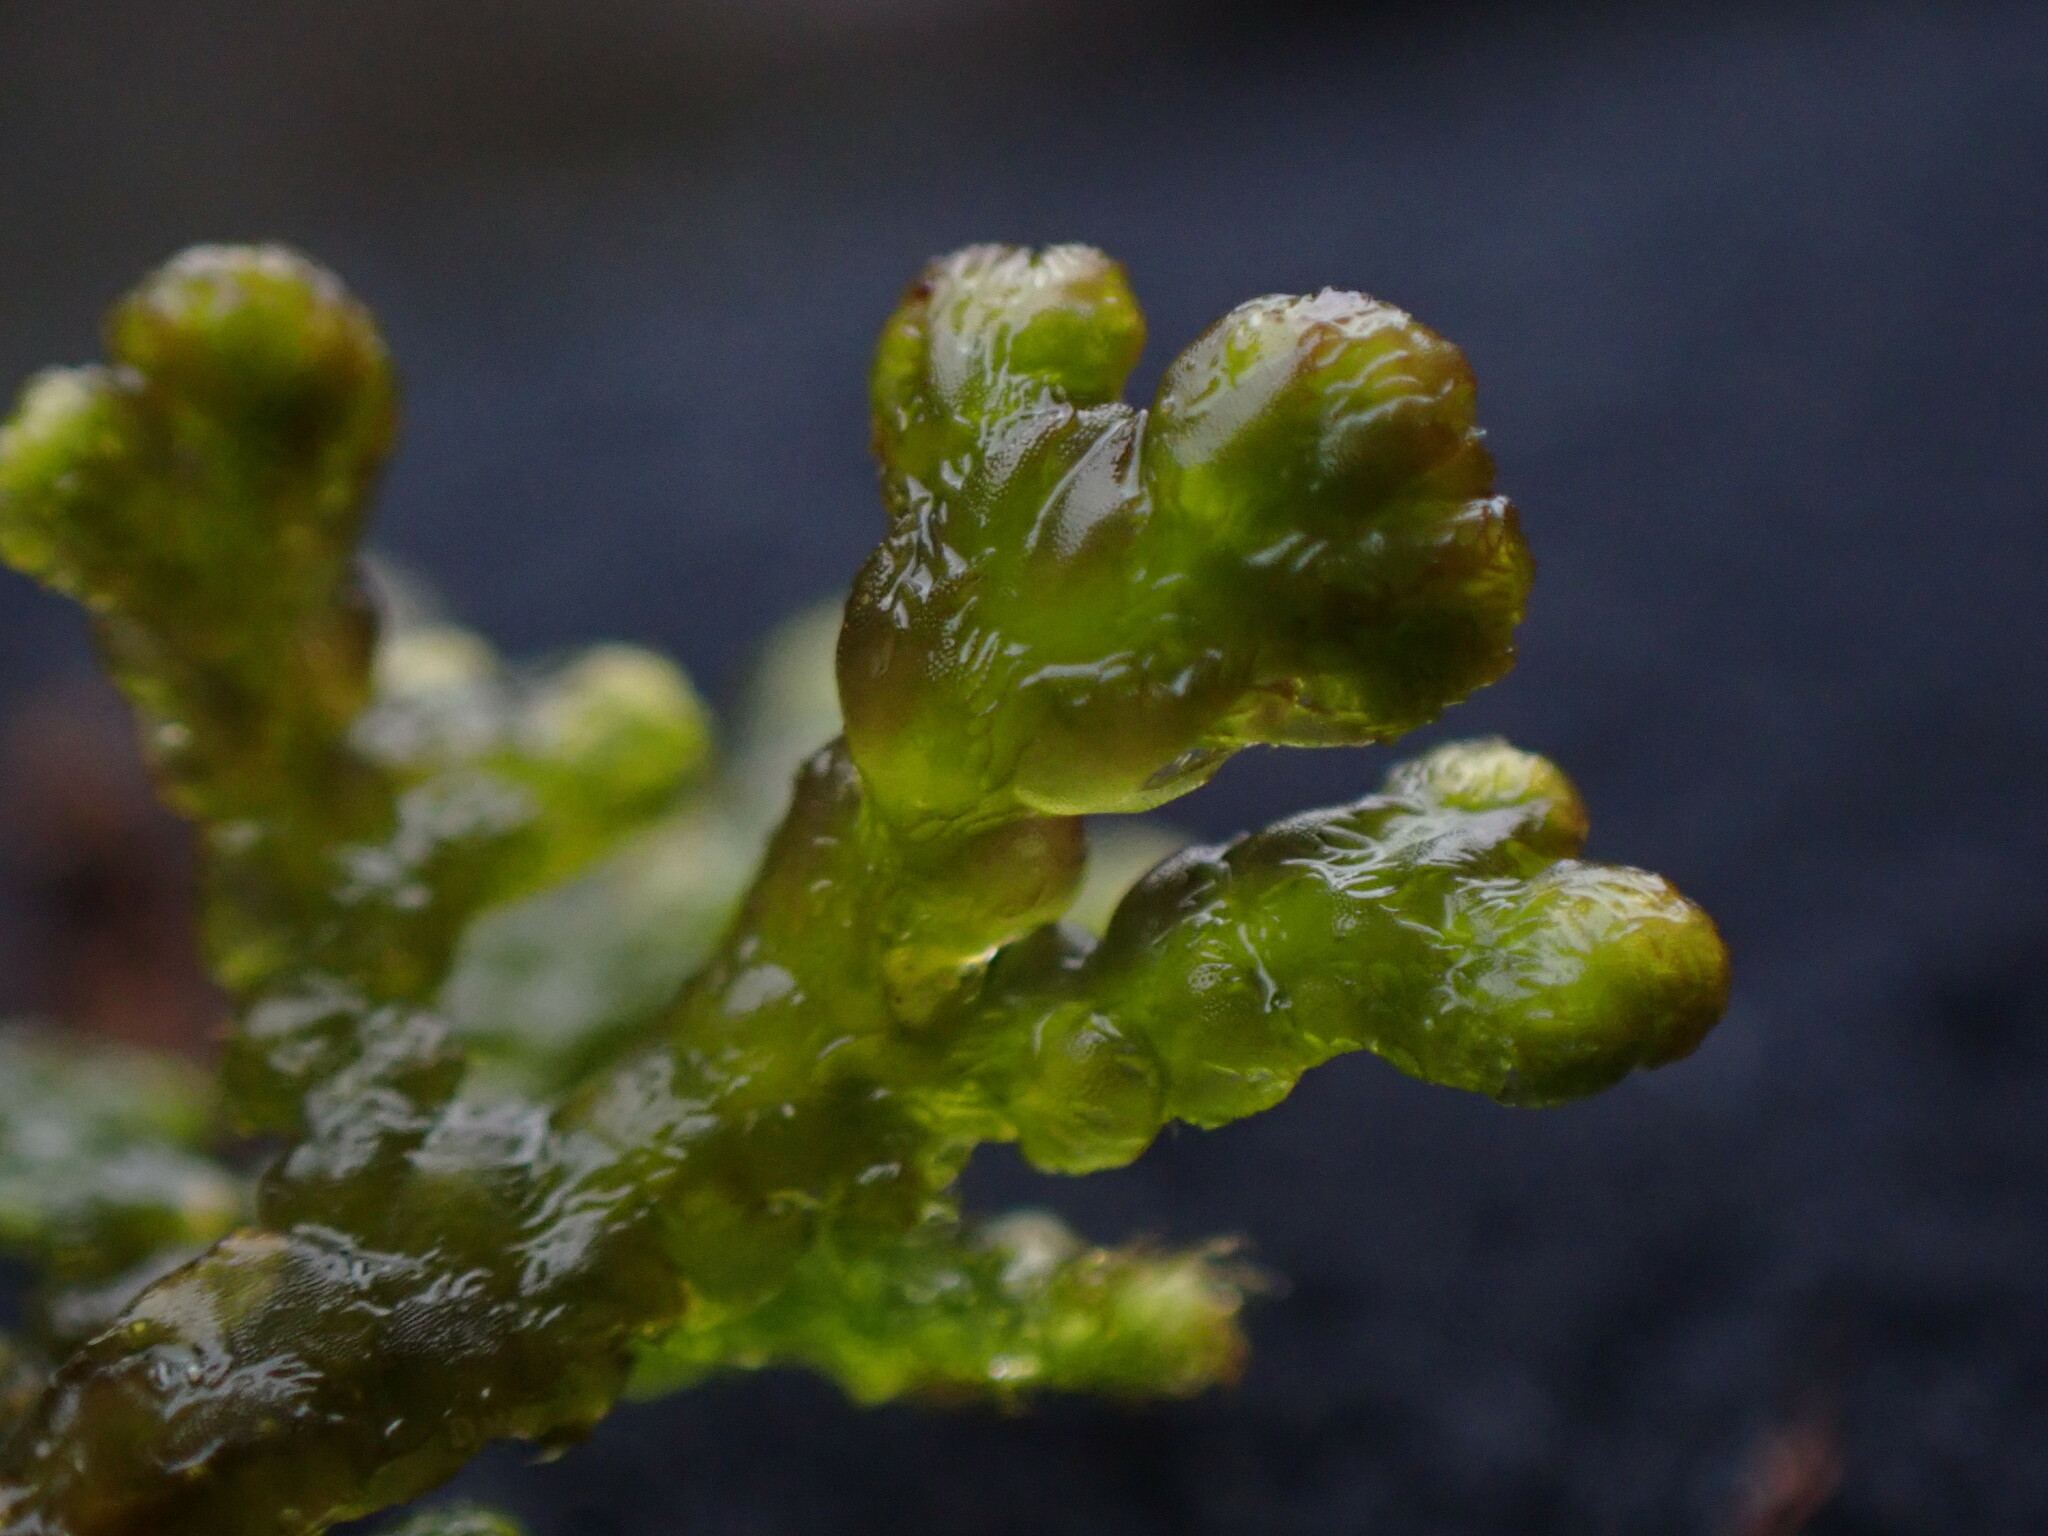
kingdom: Plantae
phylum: Marchantiophyta
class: Jungermanniopsida
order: Ptilidiales
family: Ptilidiaceae
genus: Ptilidium
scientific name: Ptilidium ciliare
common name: Ciliate fringewort
